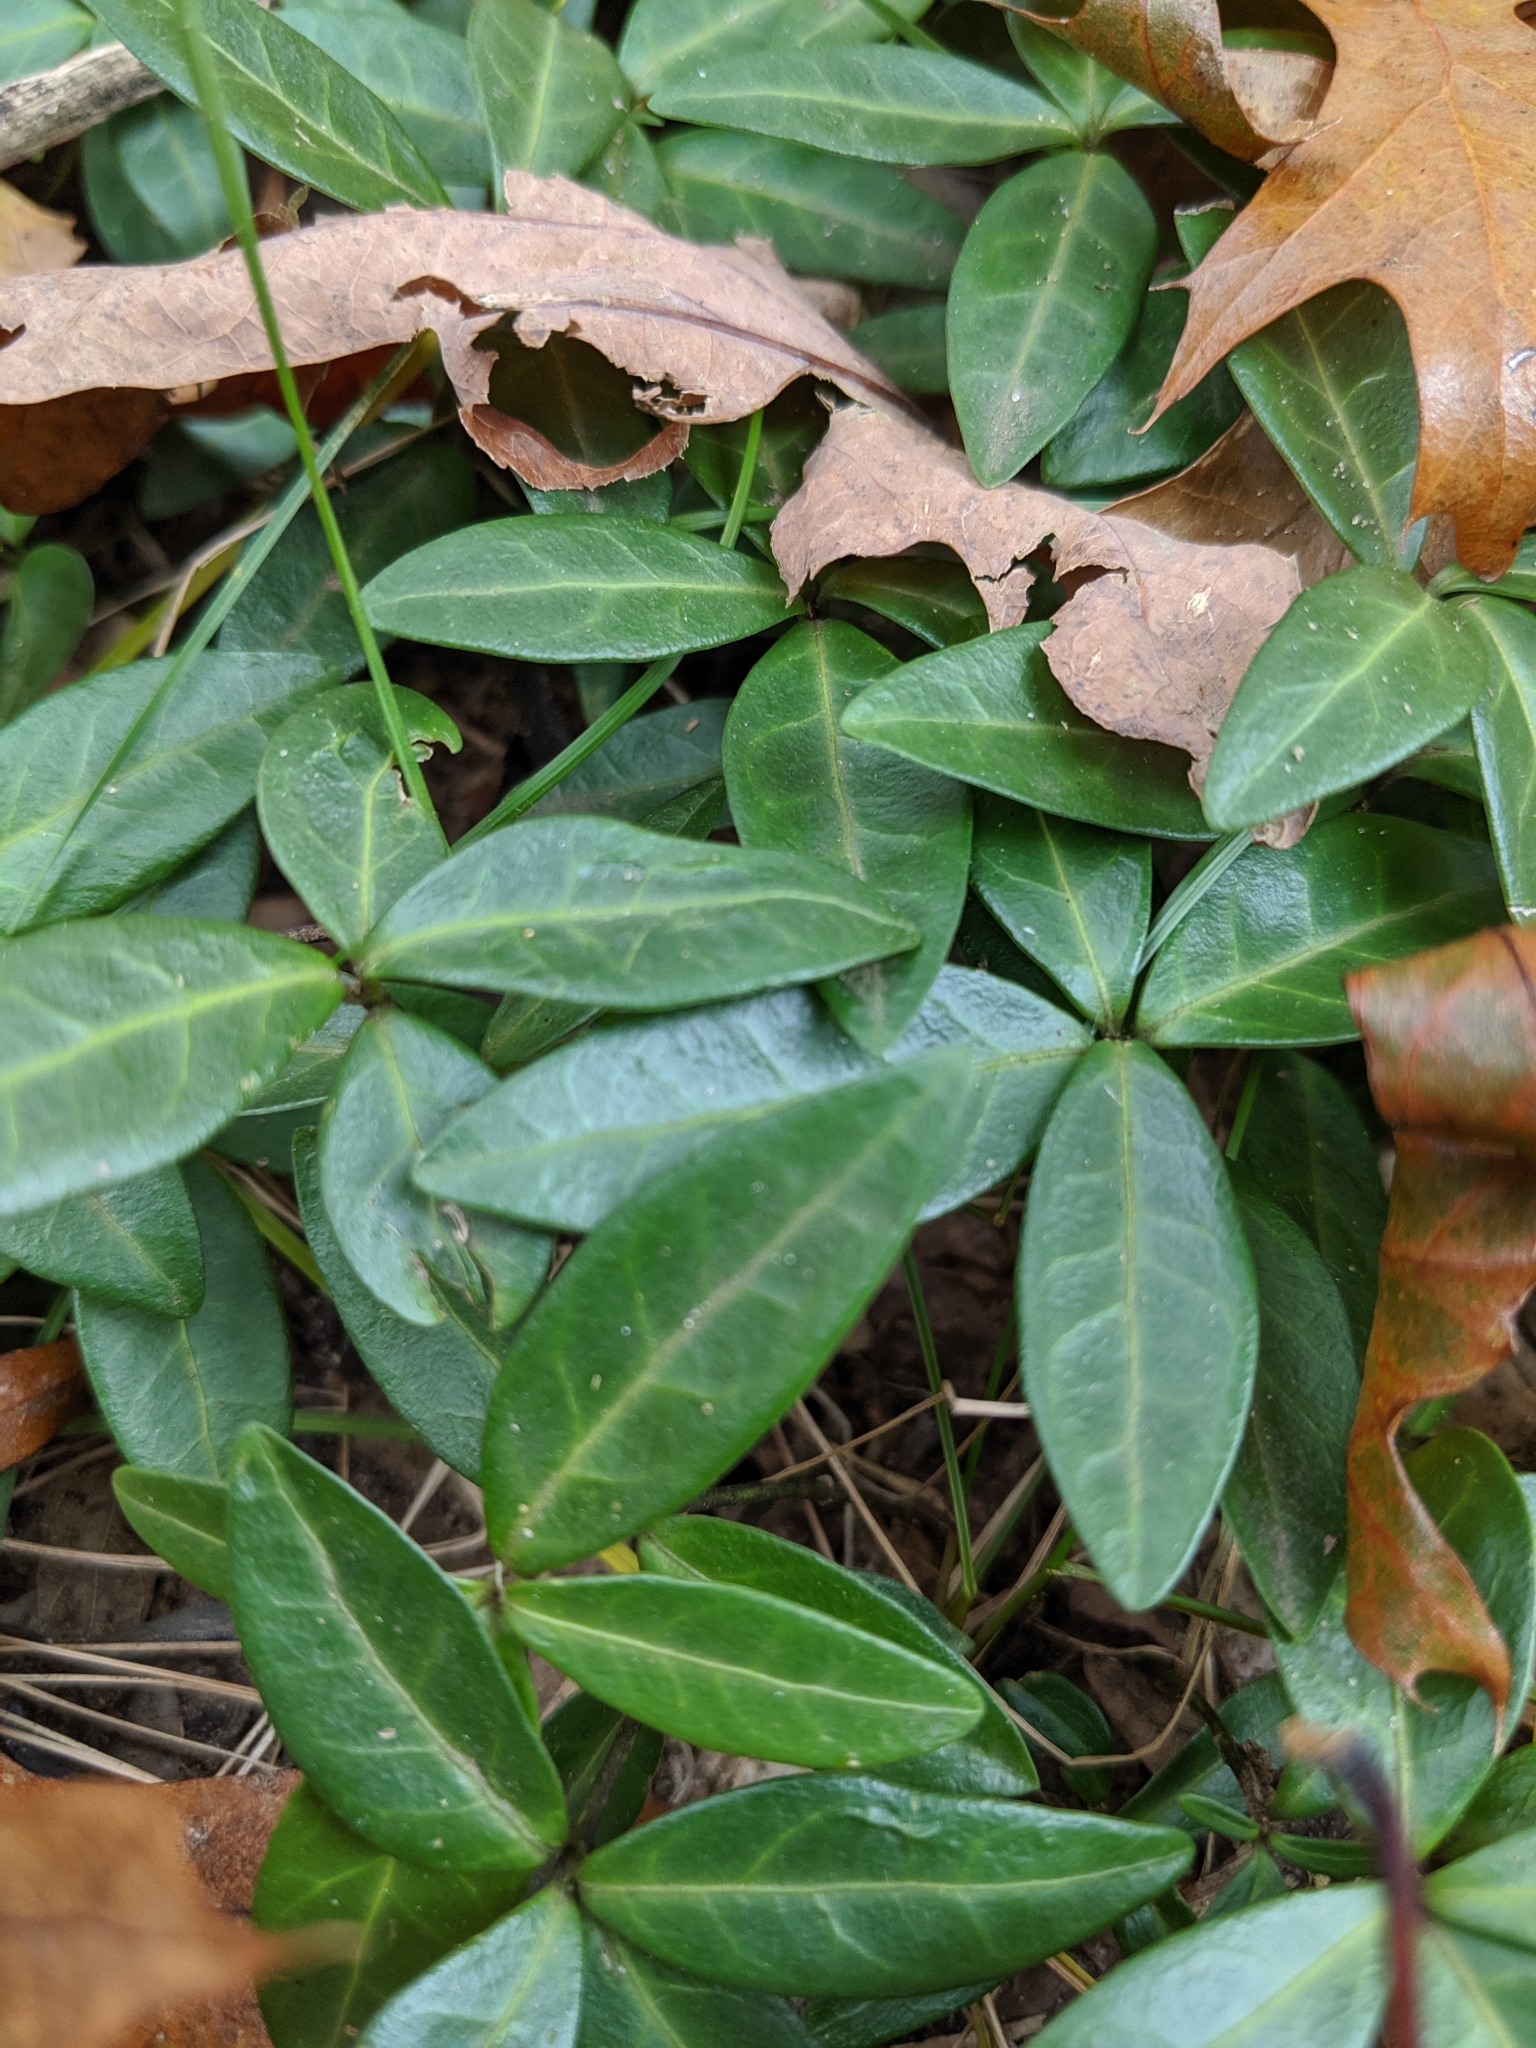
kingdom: Plantae
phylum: Tracheophyta
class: Magnoliopsida
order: Gentianales
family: Apocynaceae
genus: Vinca
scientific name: Vinca minor
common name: Lesser periwinkle
